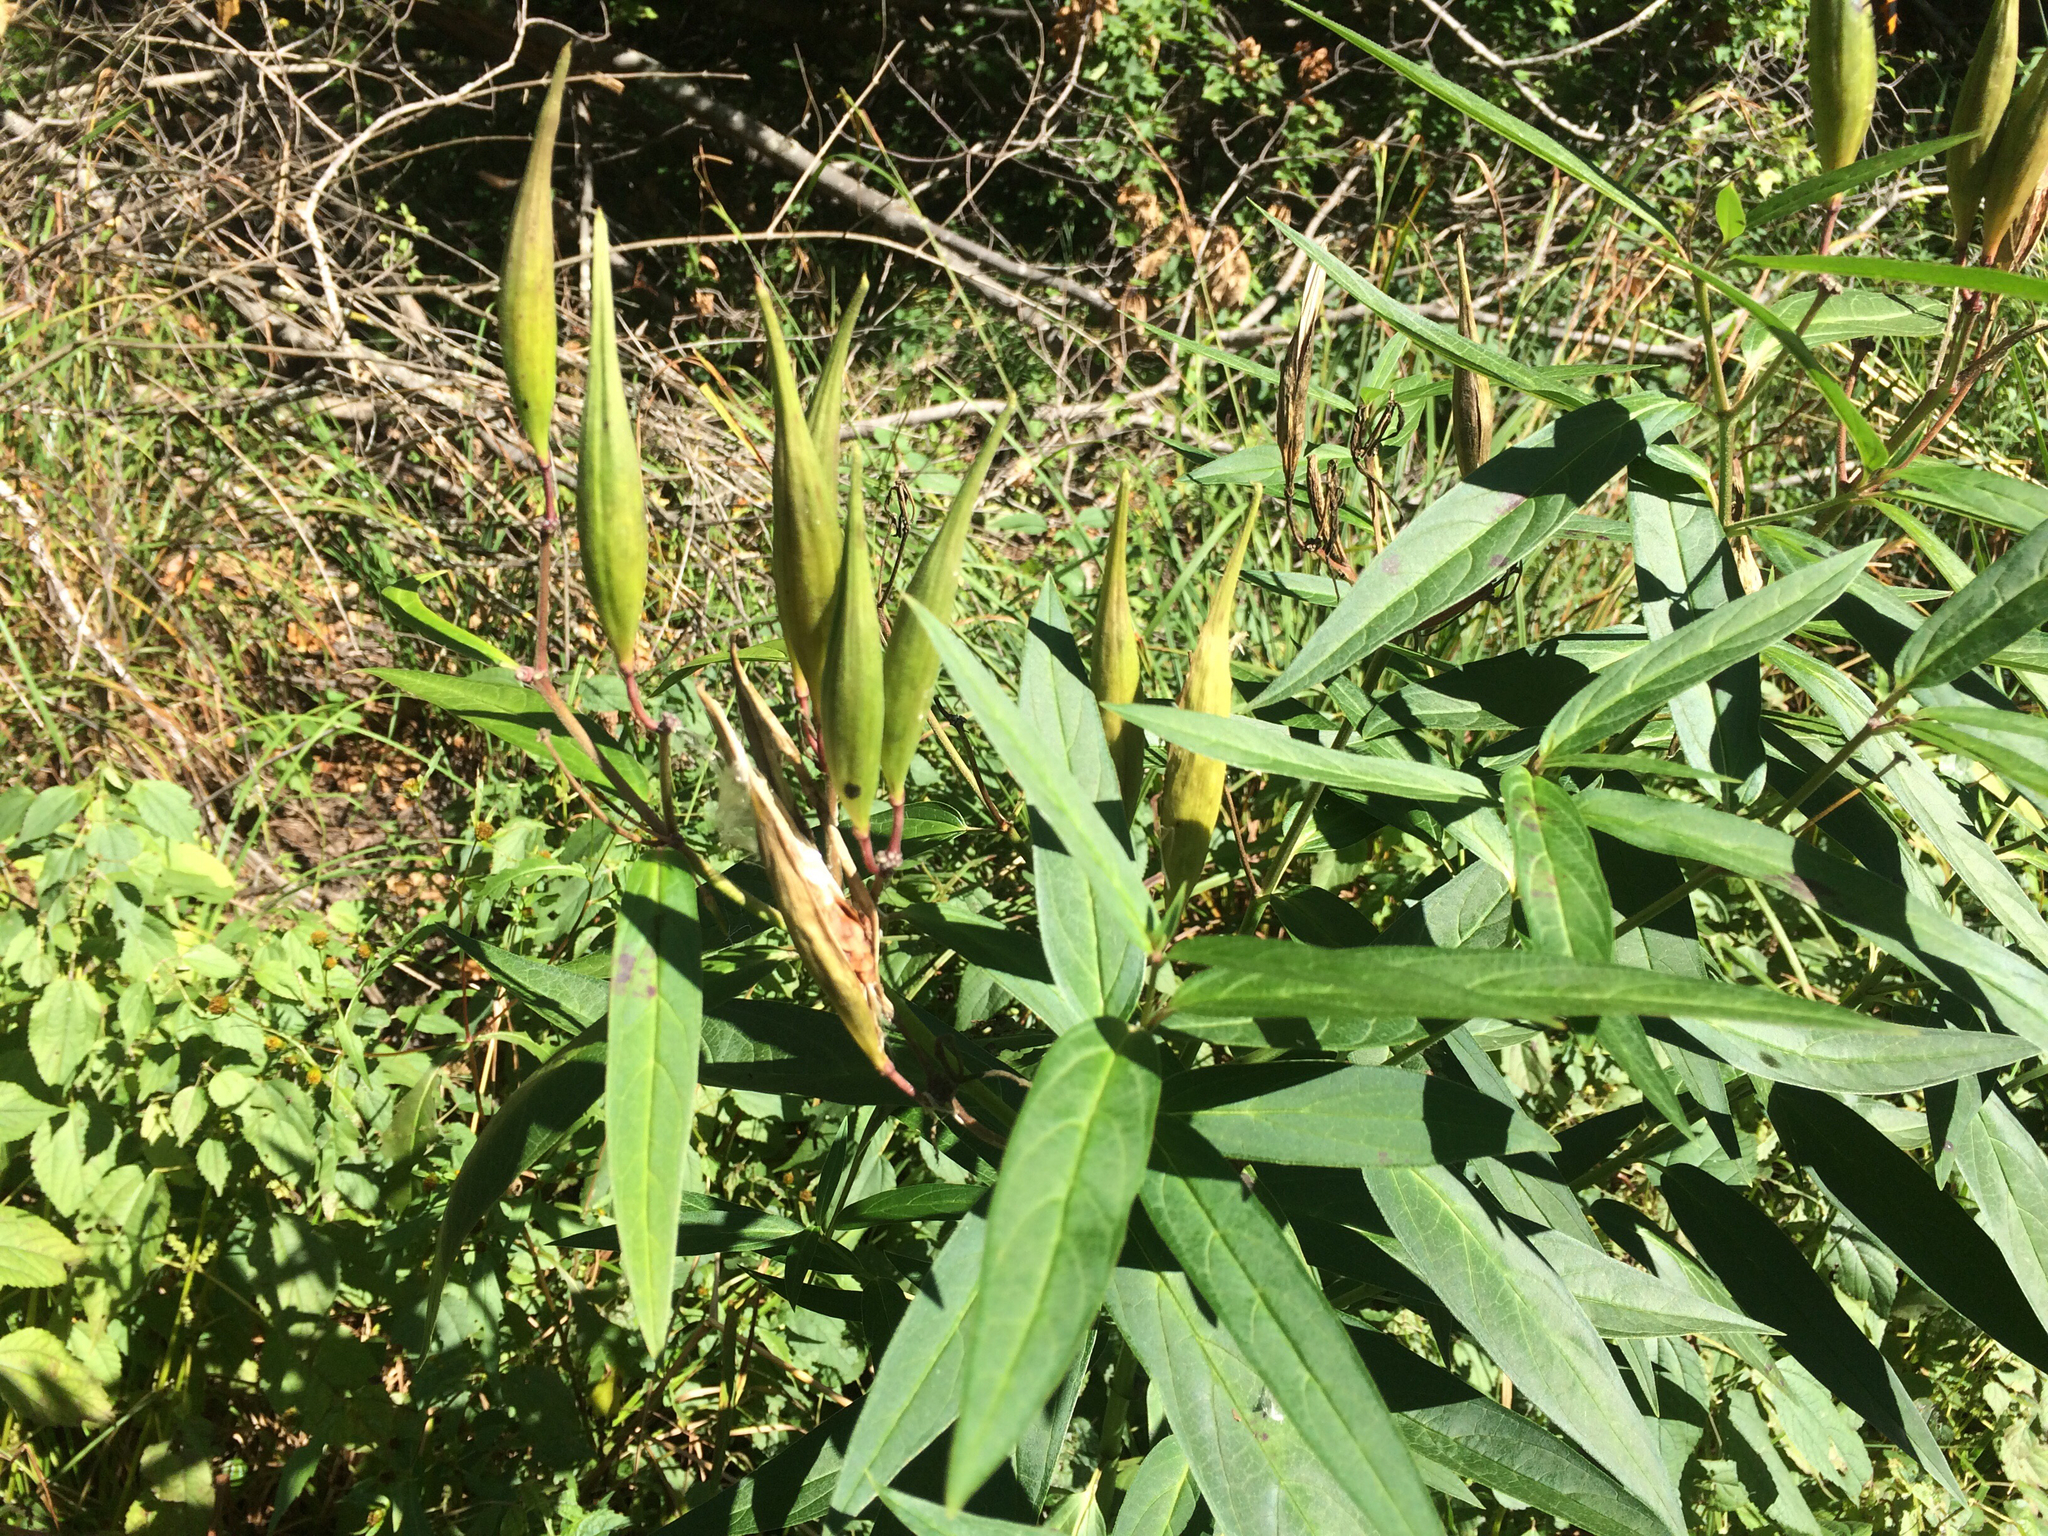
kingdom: Plantae
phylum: Tracheophyta
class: Magnoliopsida
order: Gentianales
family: Apocynaceae
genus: Asclepias
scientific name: Asclepias incarnata
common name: Swamp milkweed
